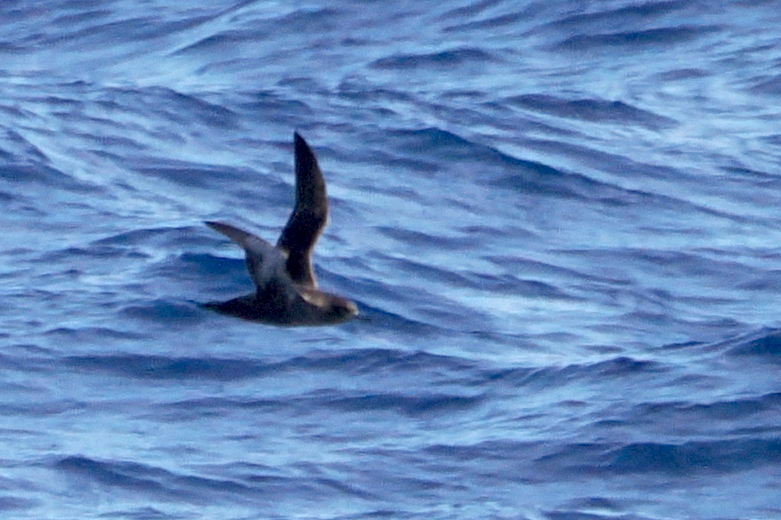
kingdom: Animalia
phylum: Chordata
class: Aves
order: Procellariiformes
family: Procellariidae
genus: Puffinus
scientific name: Puffinus griseus
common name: Sooty shearwater
